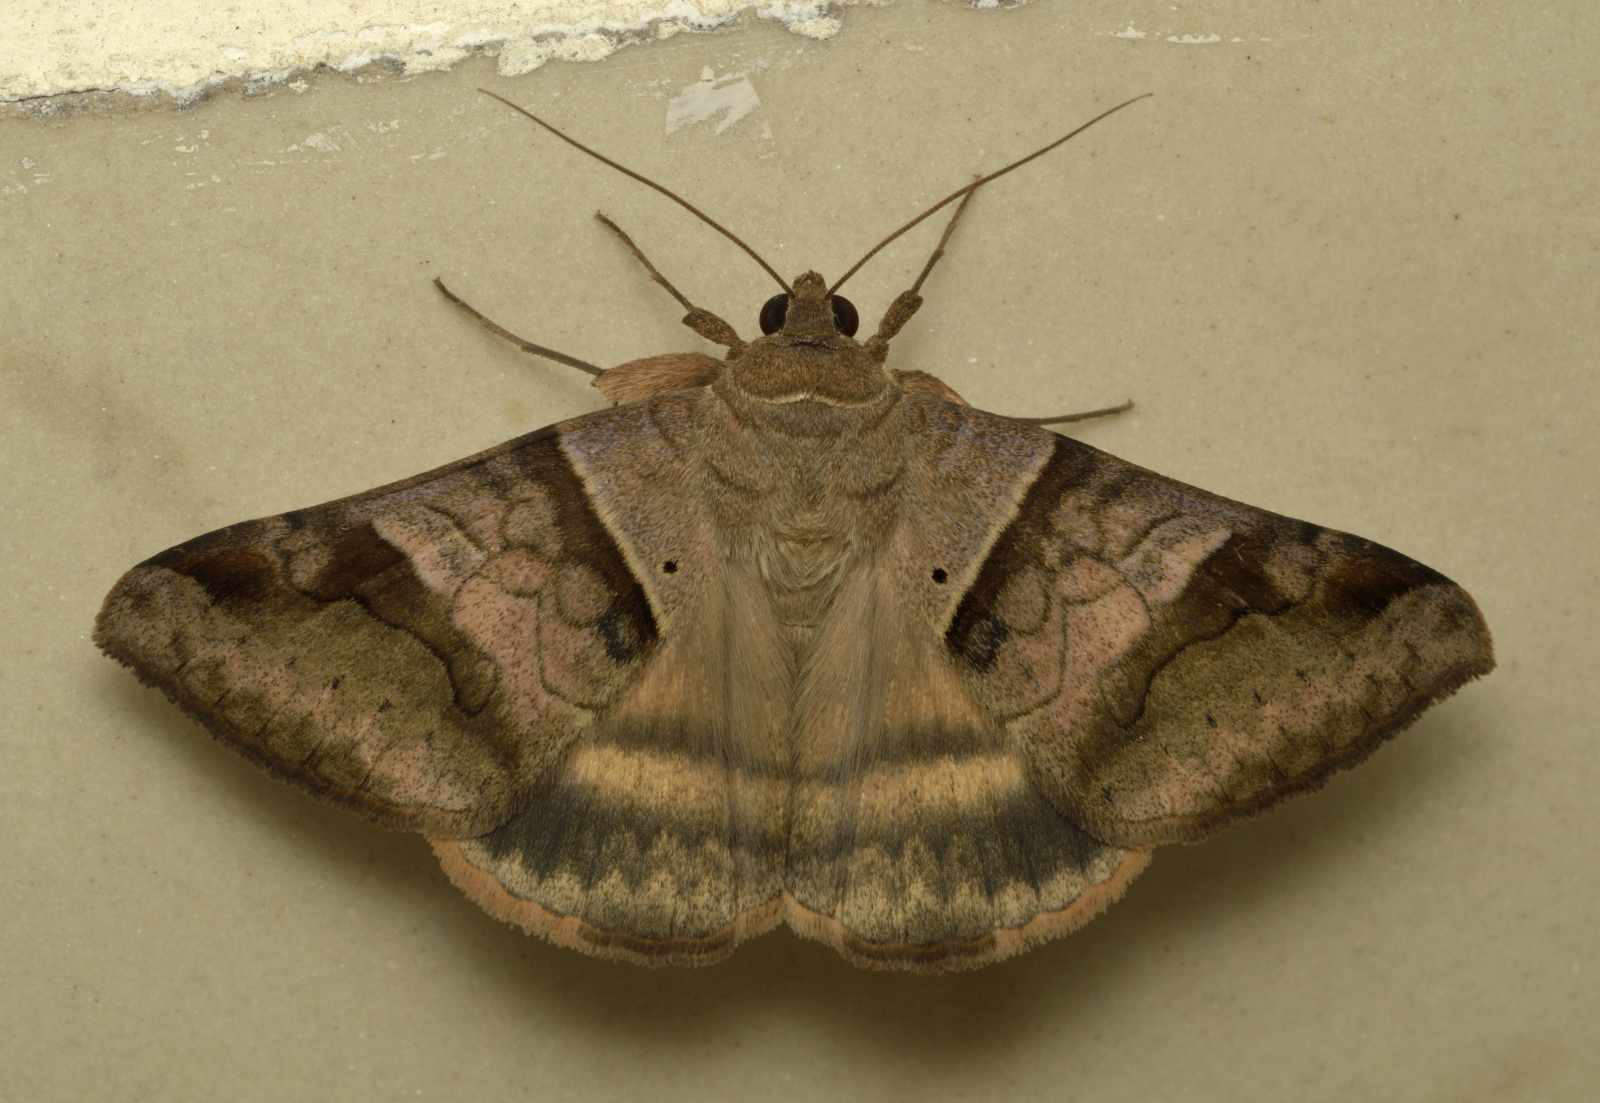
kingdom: Animalia
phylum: Arthropoda
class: Insecta
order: Lepidoptera
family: Erebidae
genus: Mocis
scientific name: Mocis undata
